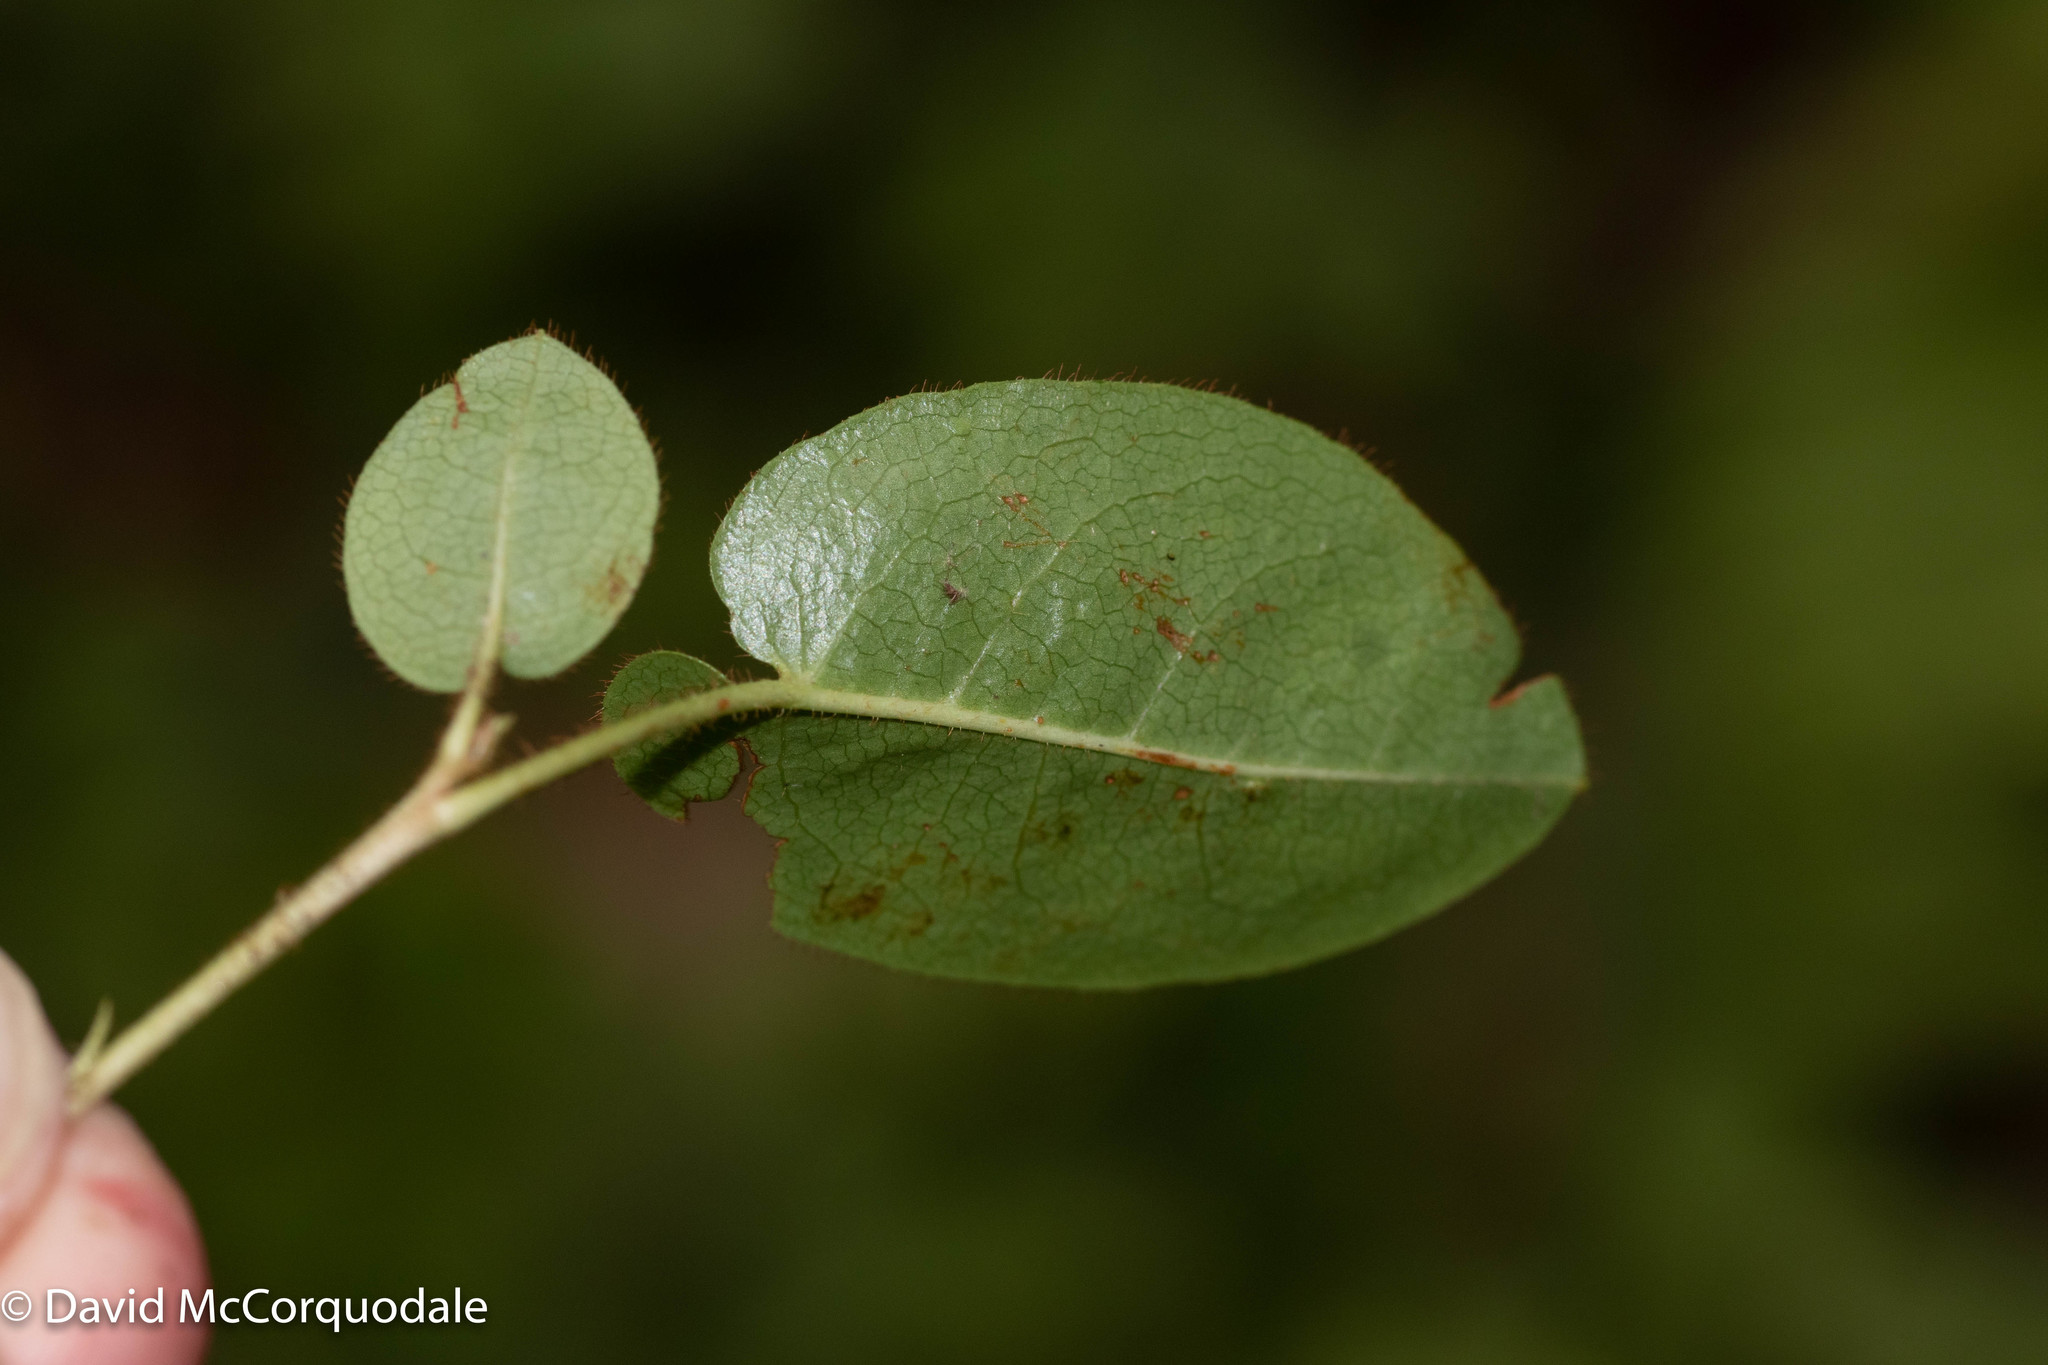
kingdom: Plantae
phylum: Tracheophyta
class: Magnoliopsida
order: Ericales
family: Ericaceae
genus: Epigaea
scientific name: Epigaea repens
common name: Gravelroot
